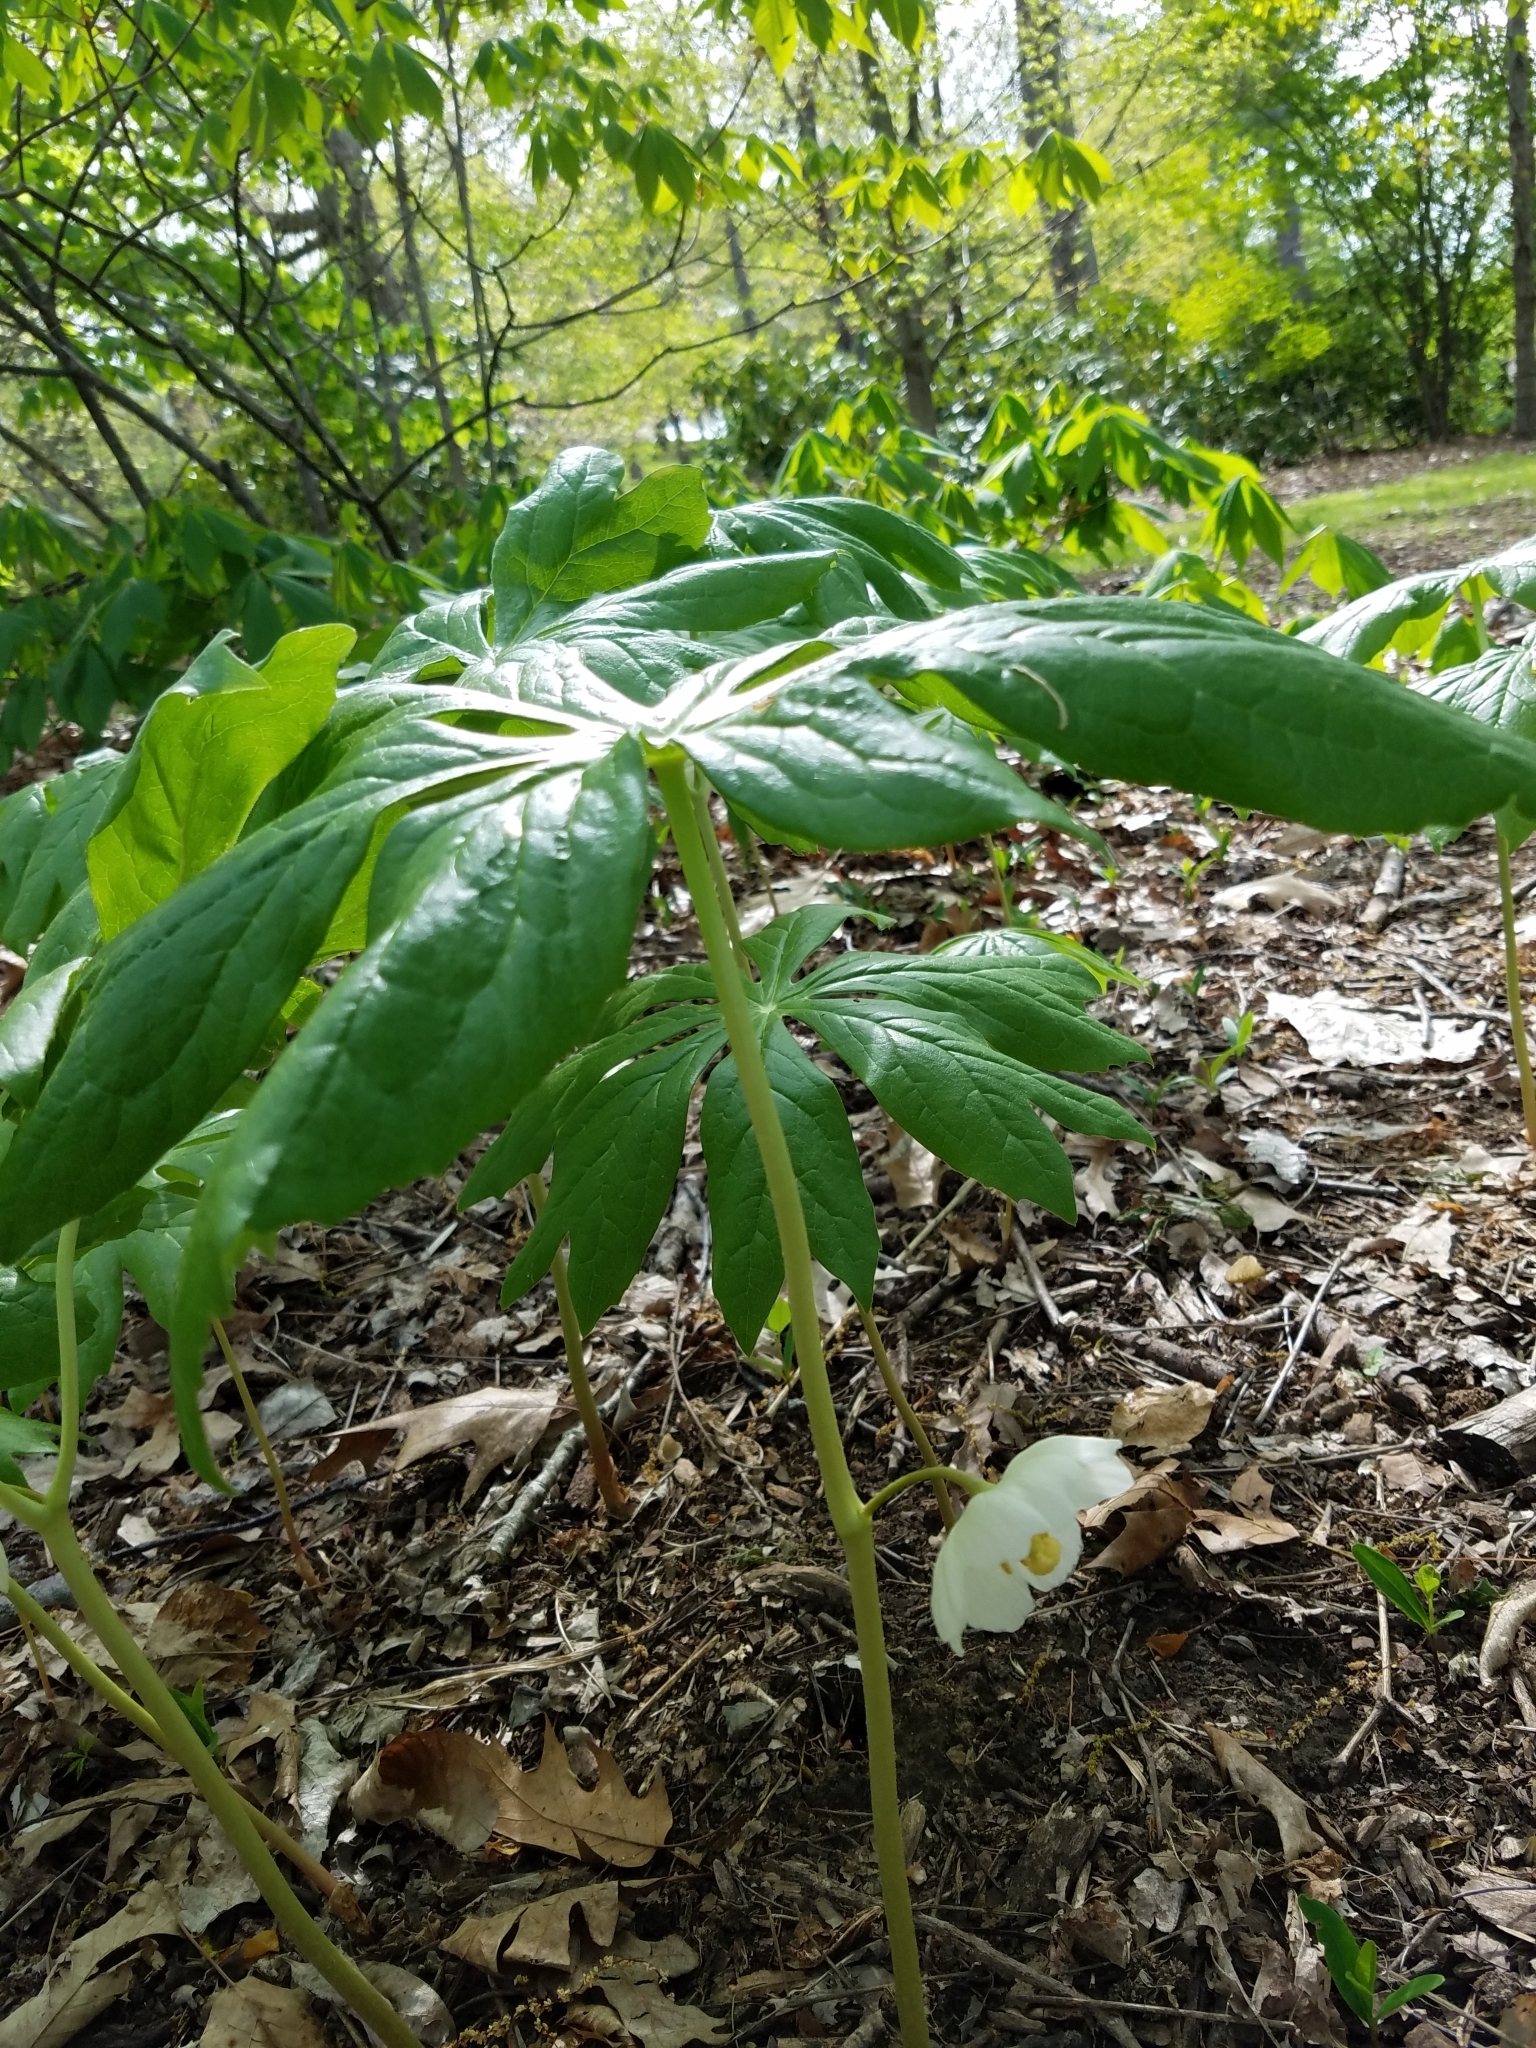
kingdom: Plantae
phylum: Tracheophyta
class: Magnoliopsida
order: Ranunculales
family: Berberidaceae
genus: Podophyllum
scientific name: Podophyllum peltatum
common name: Wild mandrake
